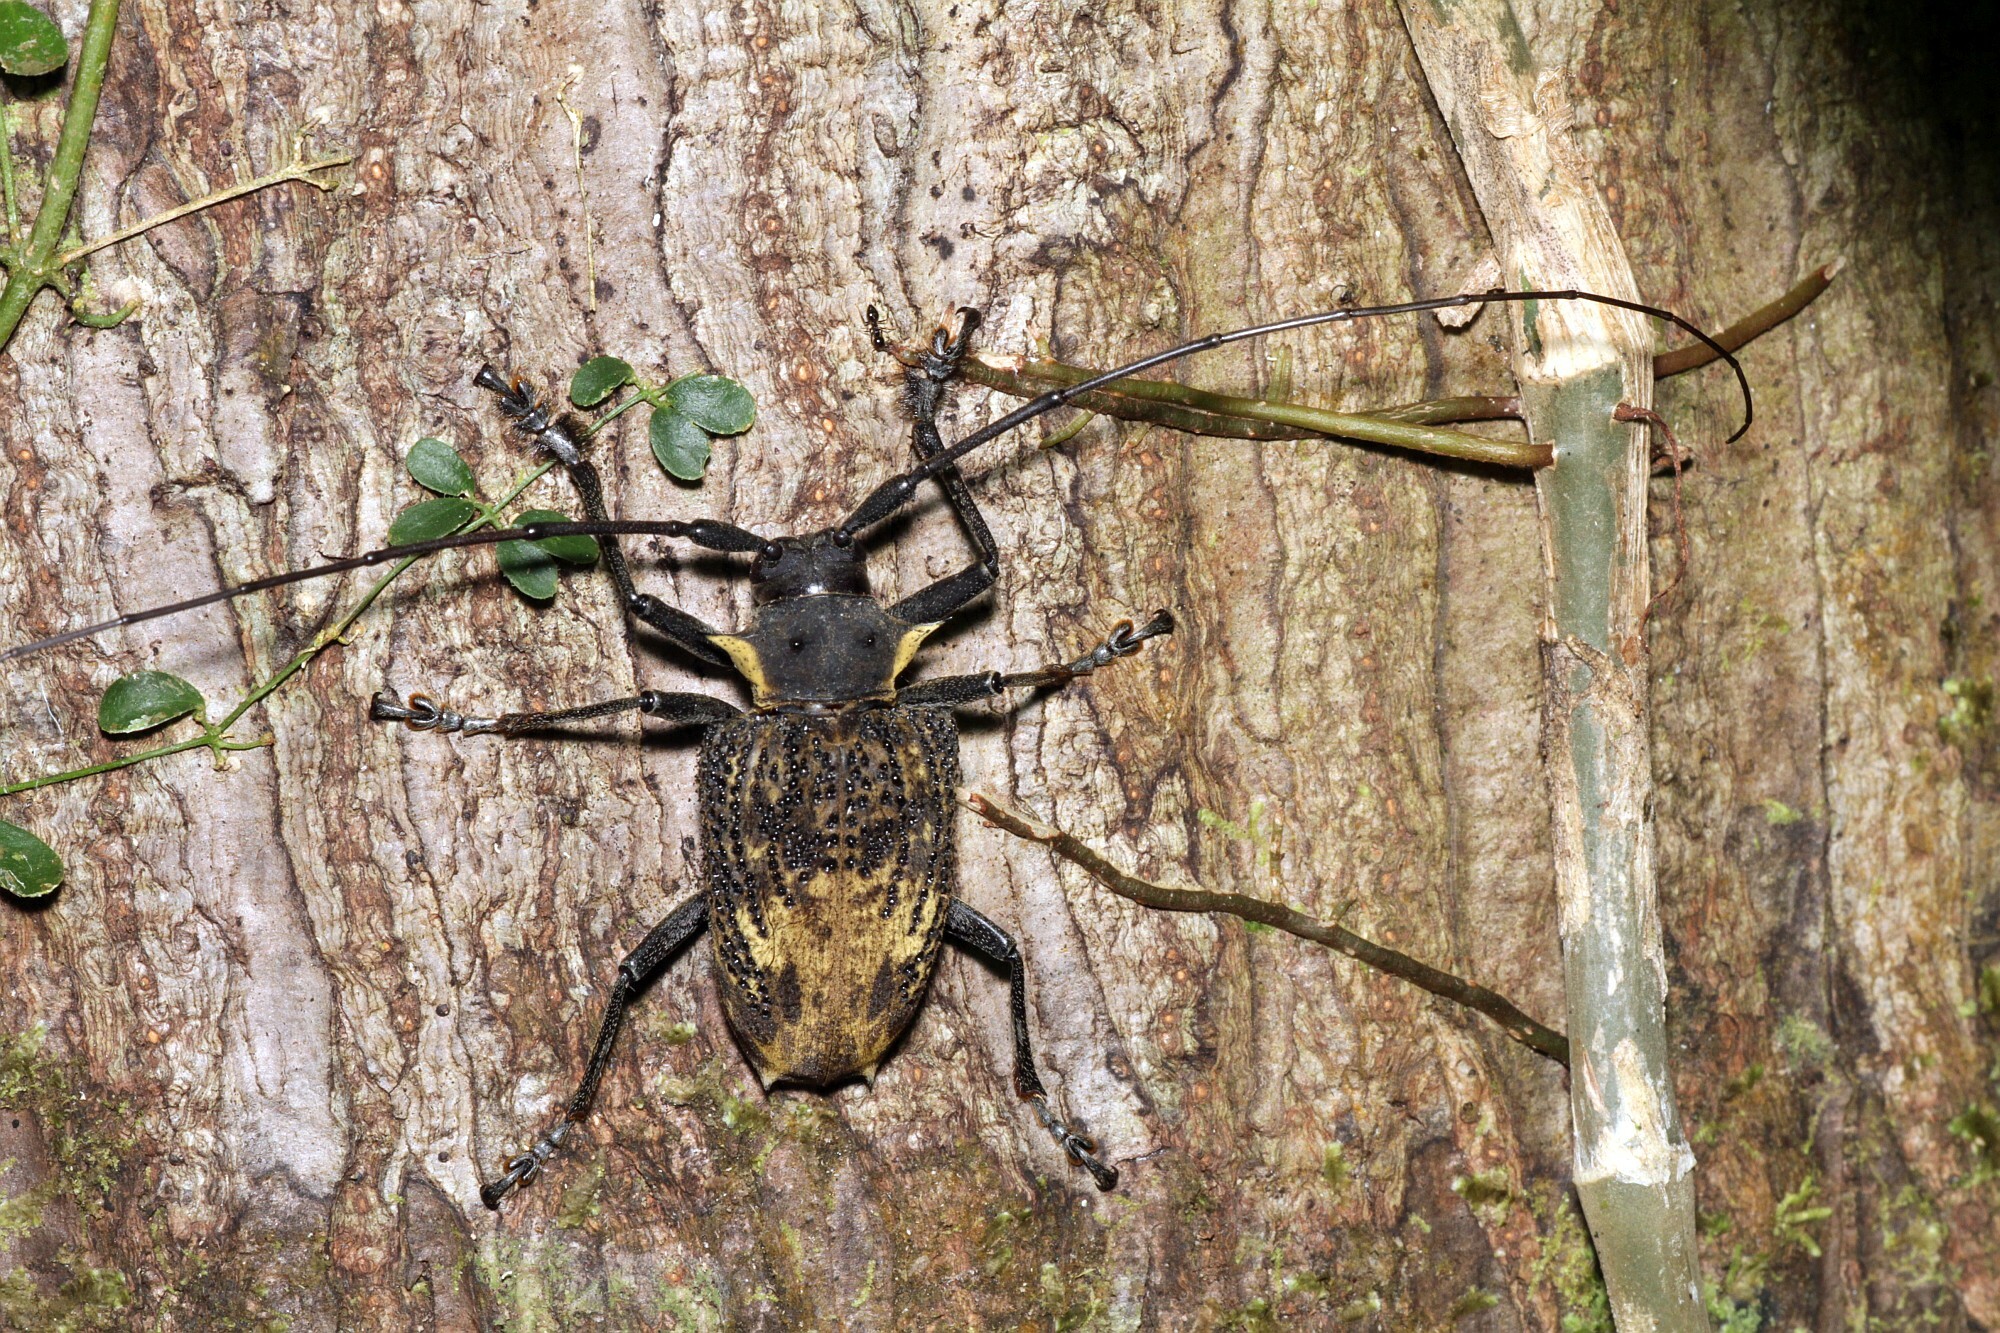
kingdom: Animalia
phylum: Arthropoda
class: Insecta
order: Coleoptera
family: Cerambycidae
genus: Polyrhaphis
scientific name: Polyrhaphis pilosa
